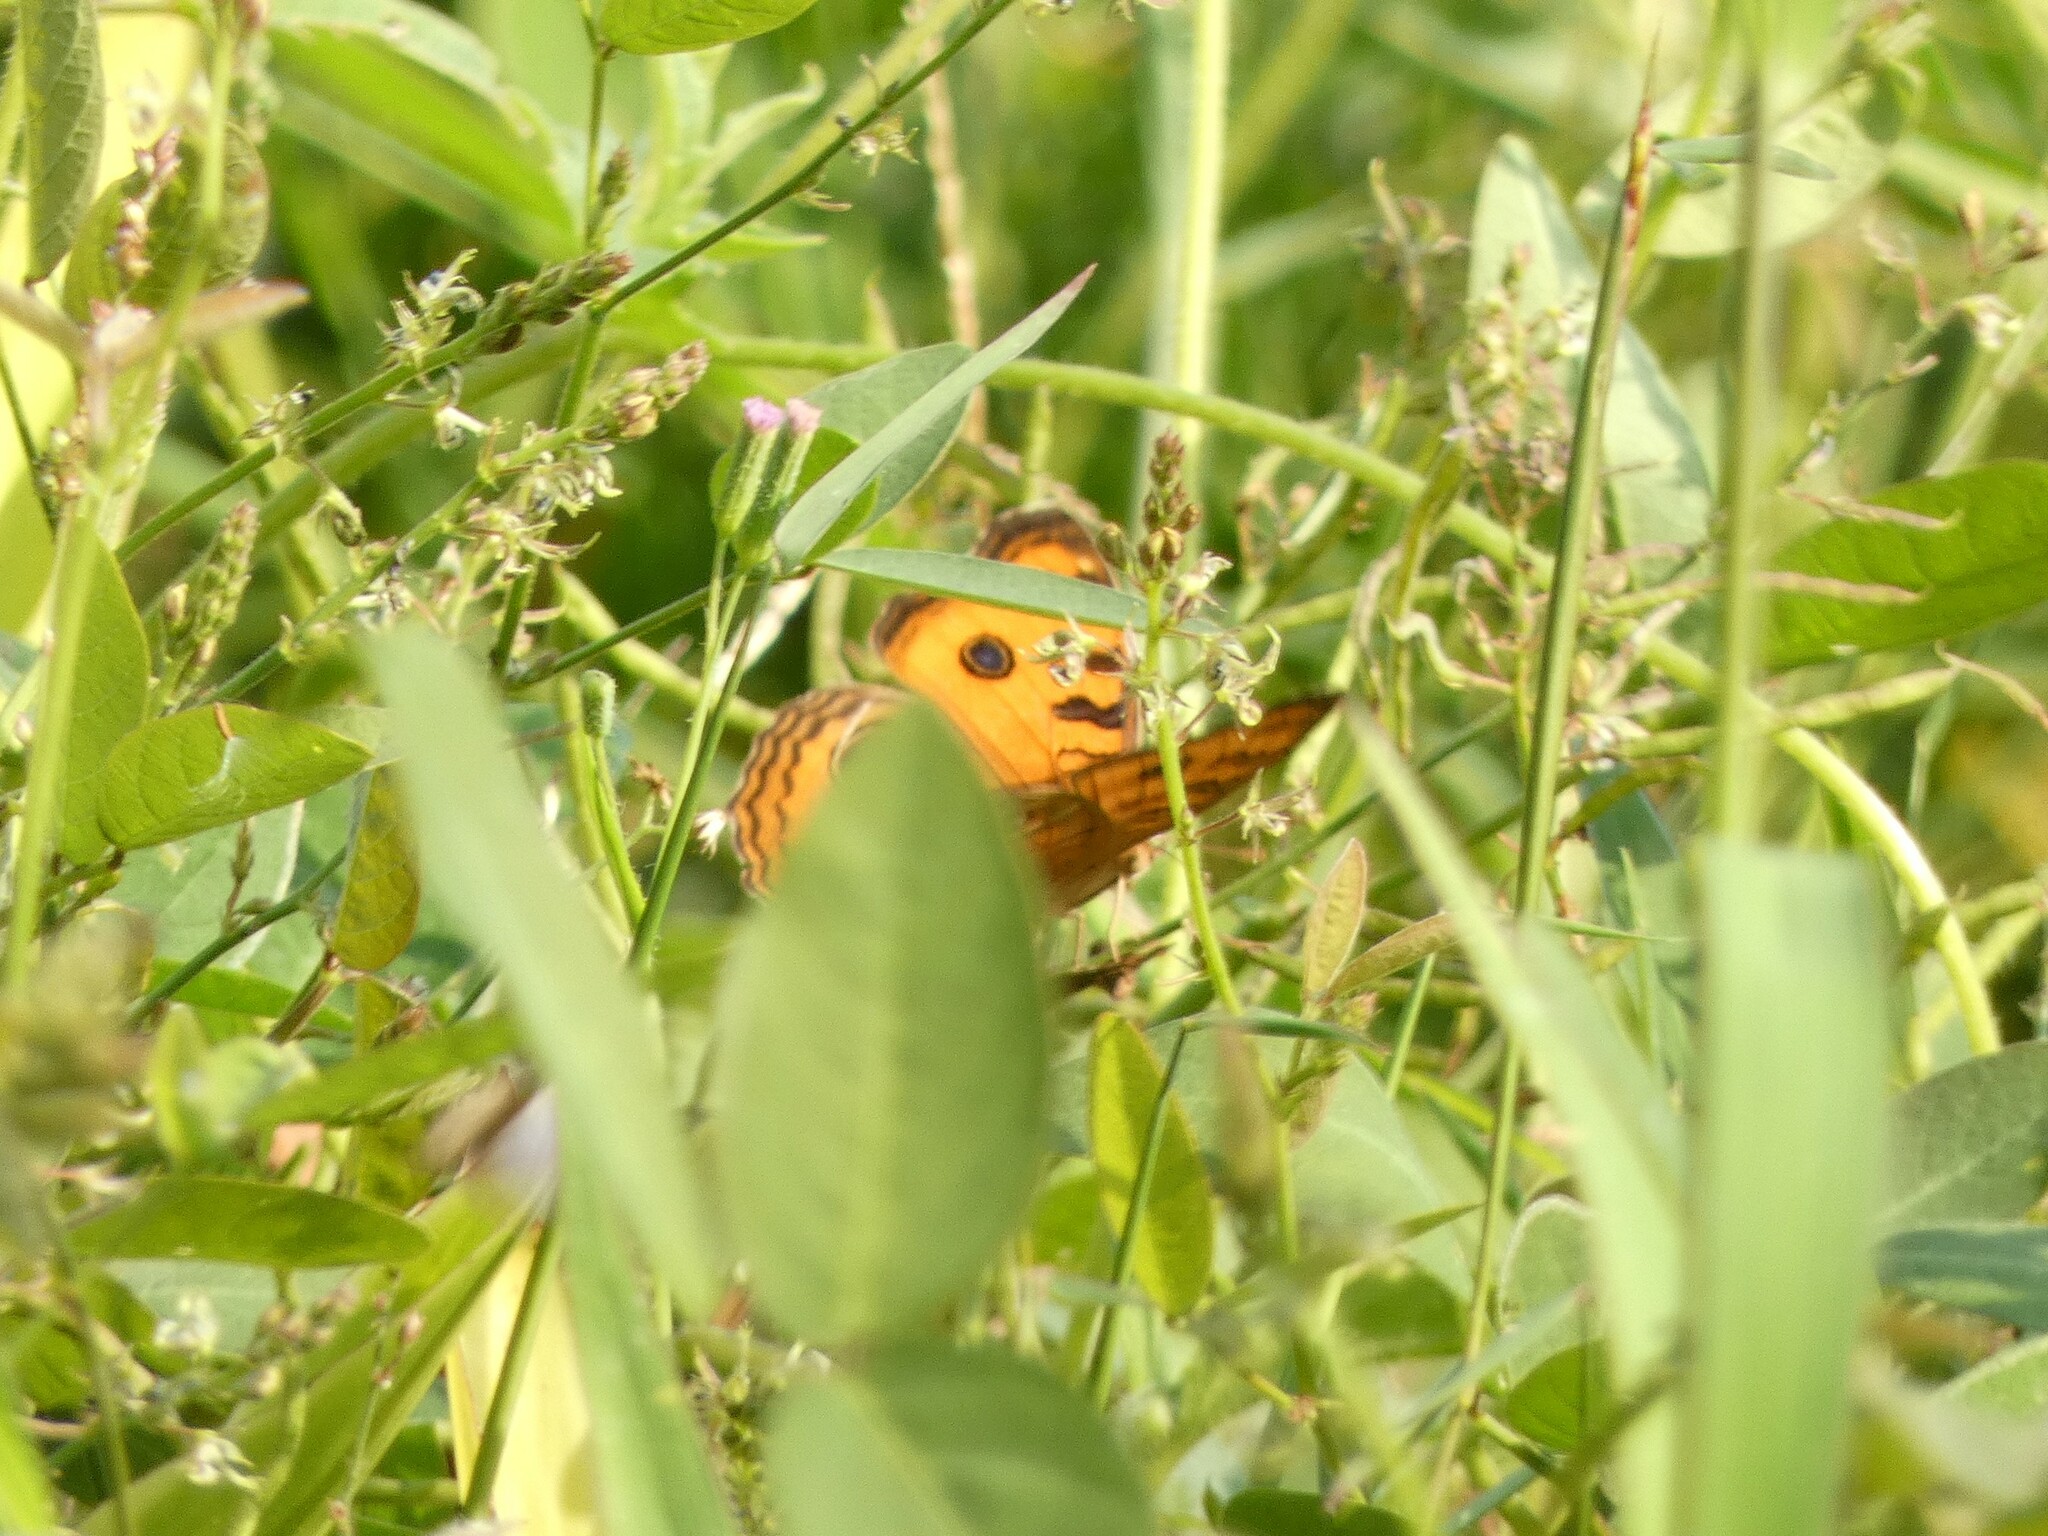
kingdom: Animalia
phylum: Arthropoda
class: Insecta
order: Lepidoptera
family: Nymphalidae
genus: Junonia
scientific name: Junonia almana
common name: Peacock pansy
